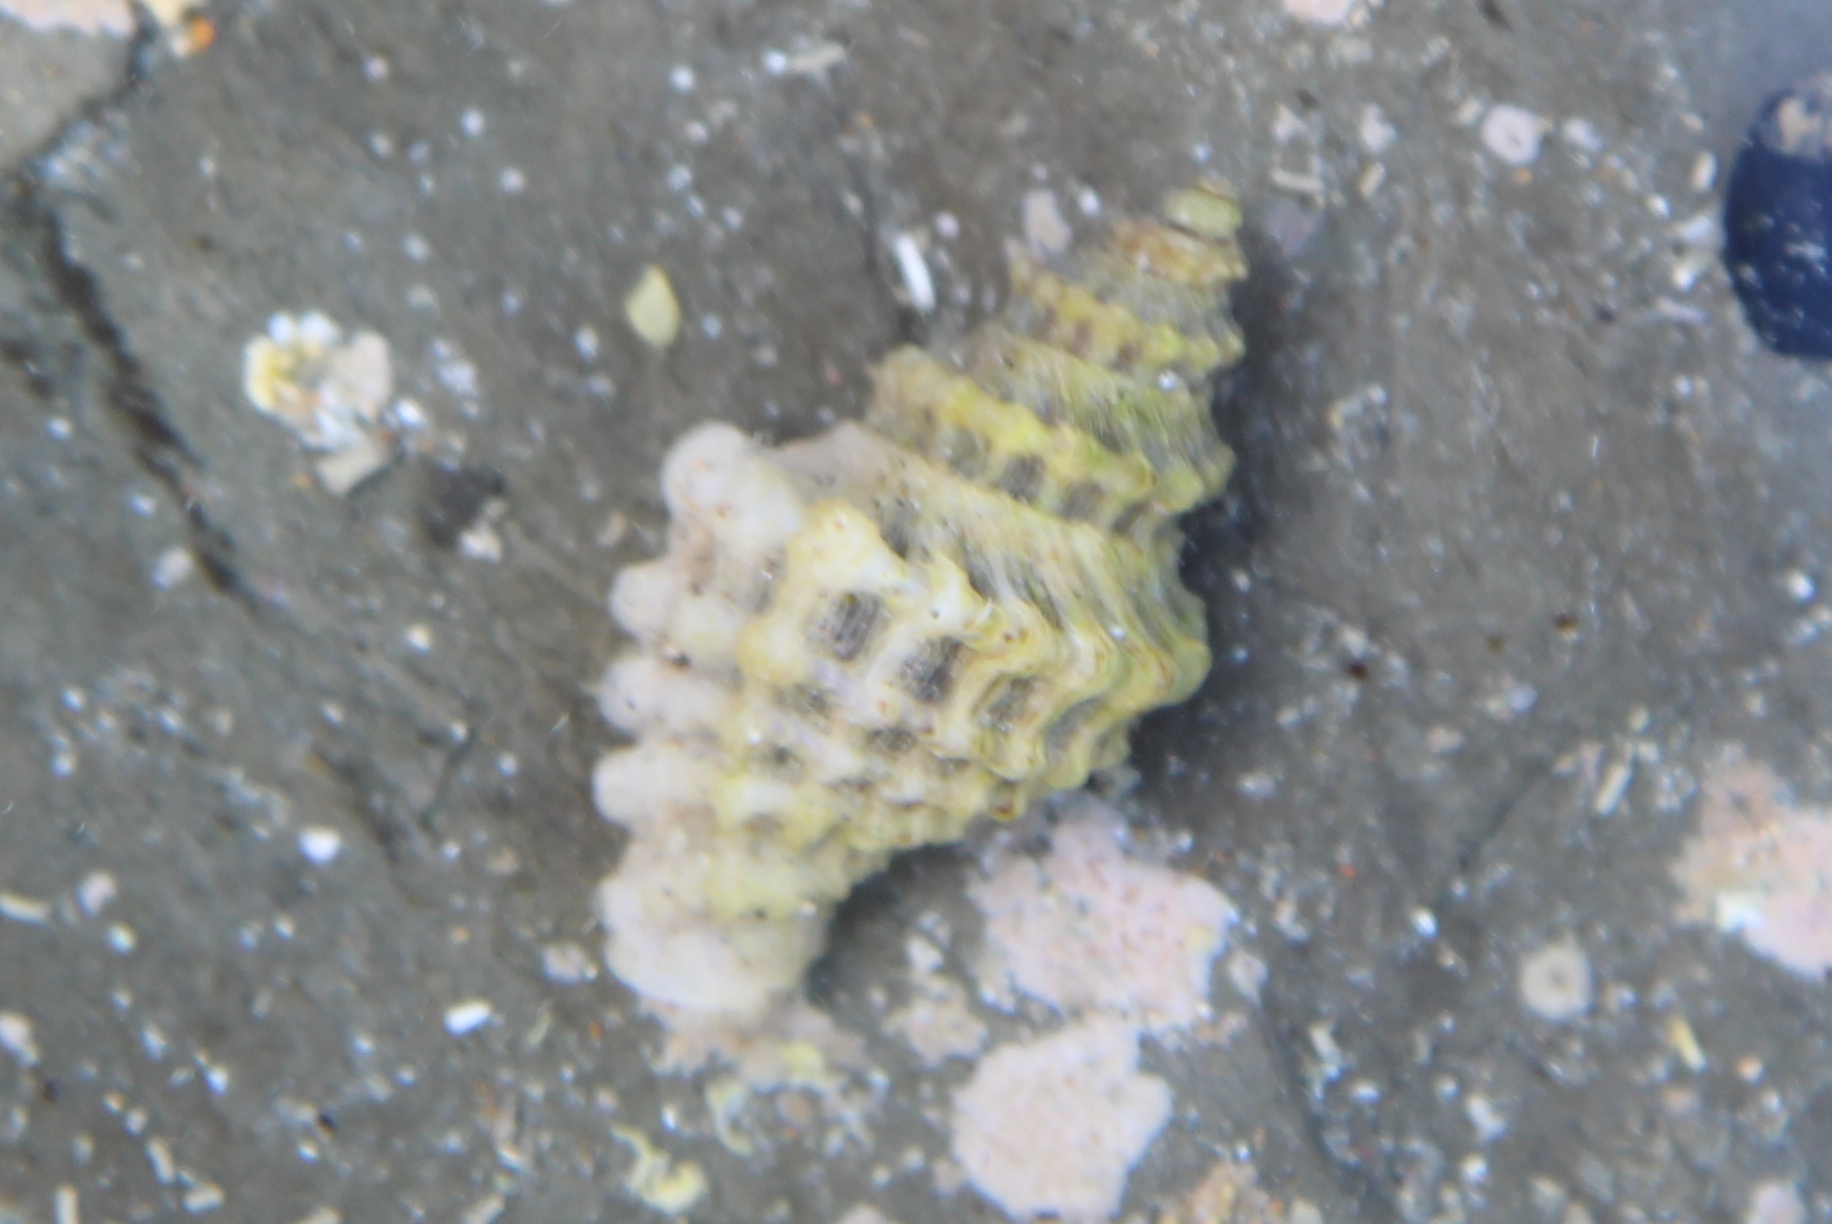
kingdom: Animalia
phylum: Mollusca
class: Gastropoda
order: Neogastropoda
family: Muricidae
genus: Paratrophon
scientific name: Paratrophon quoyi
